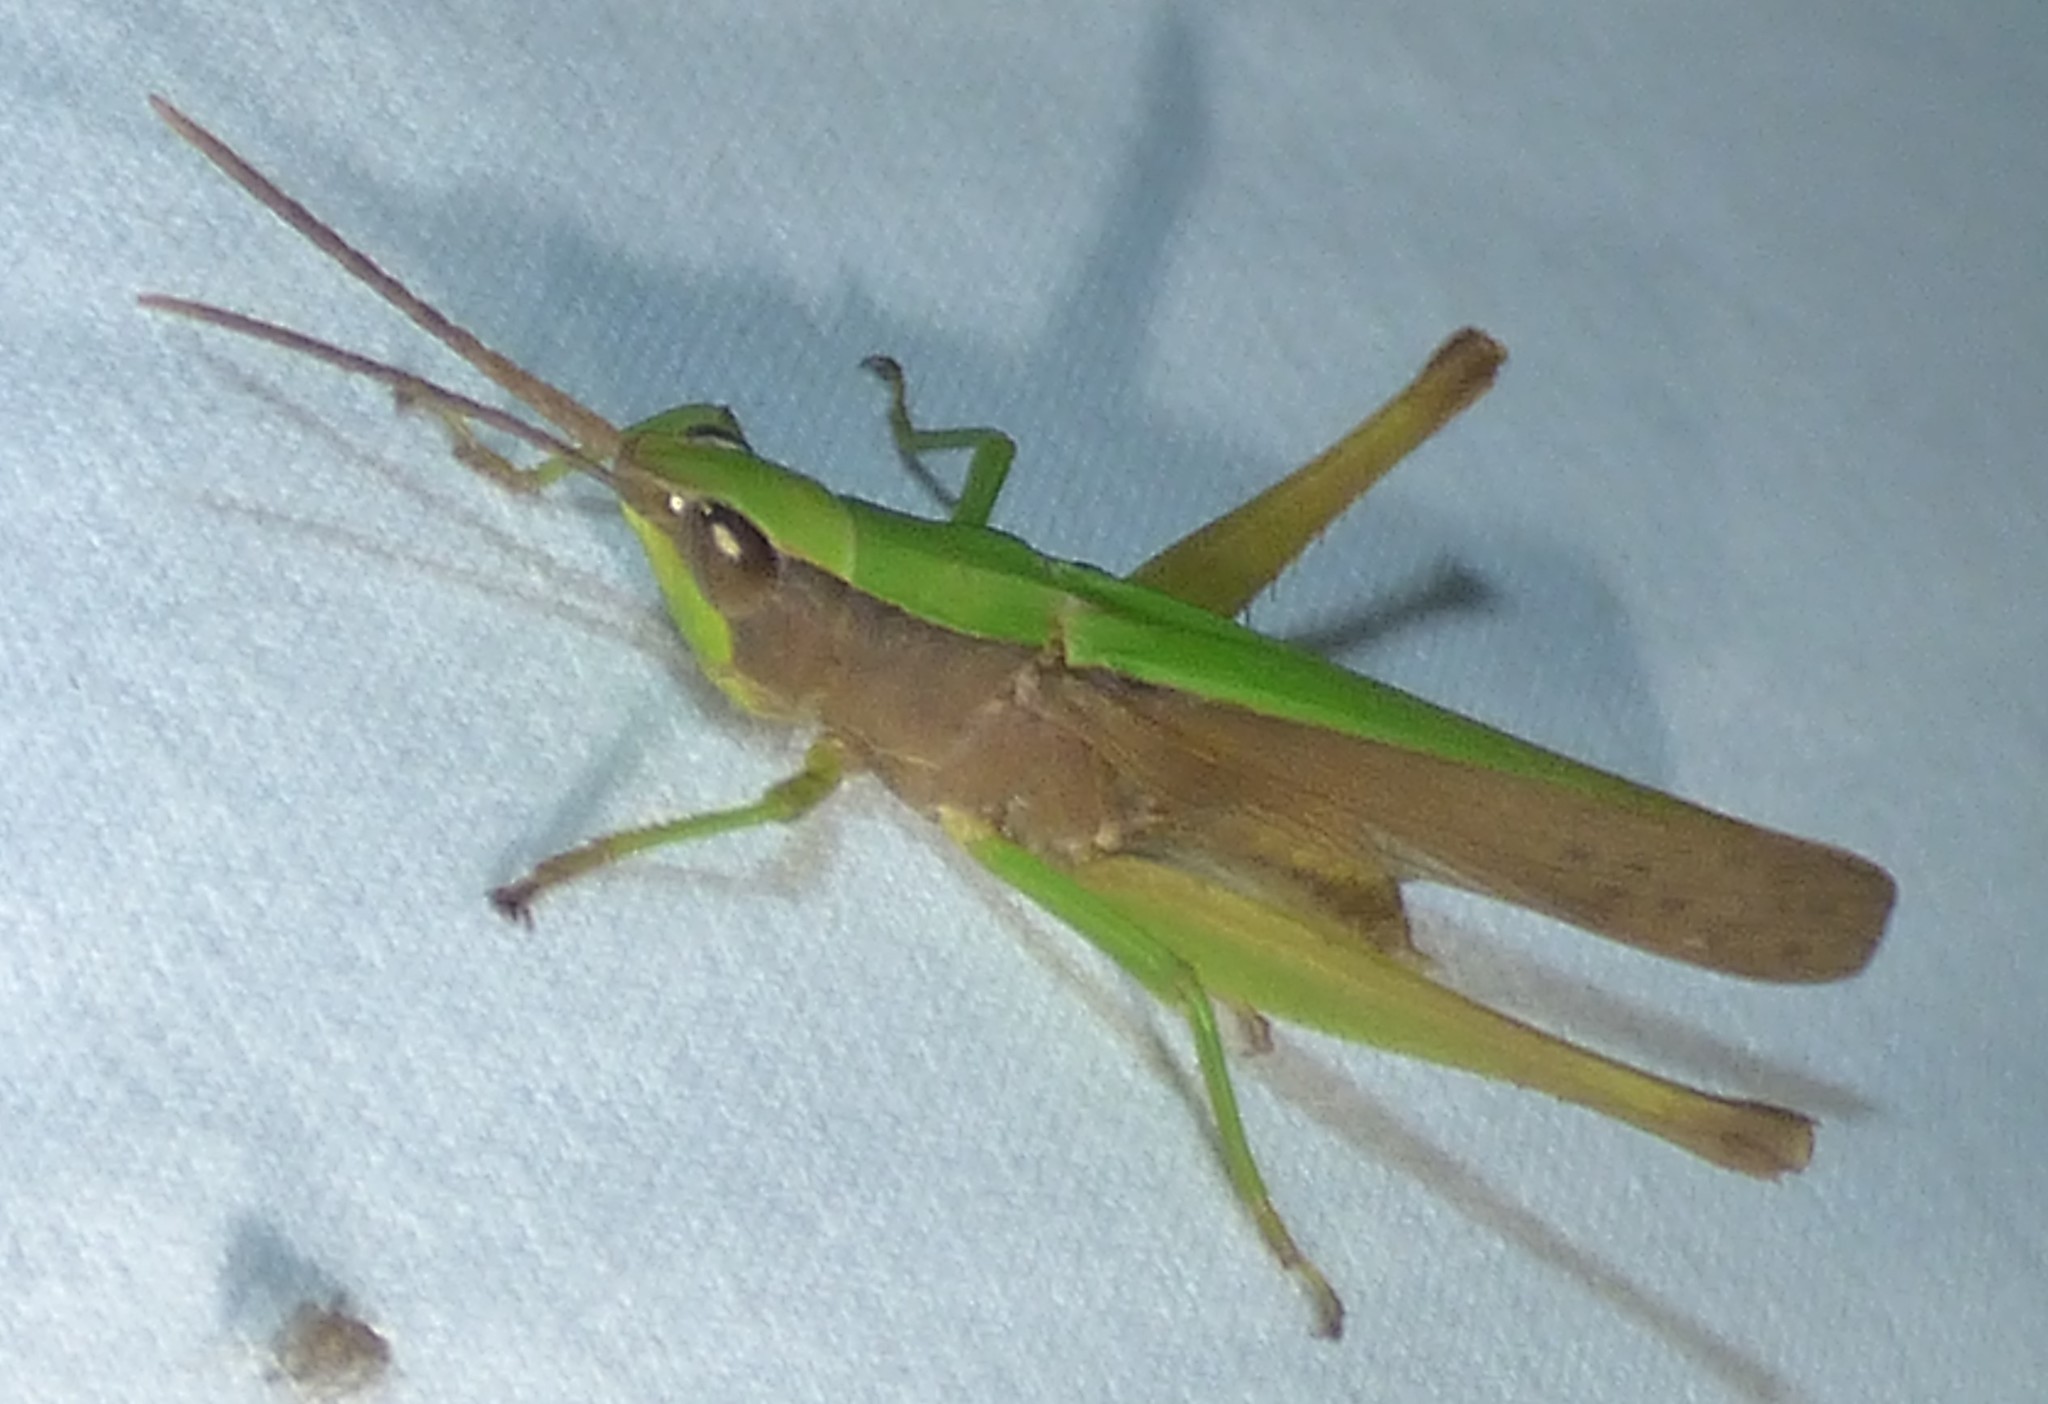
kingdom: Animalia
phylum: Arthropoda
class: Insecta
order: Orthoptera
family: Acrididae
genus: Metaleptea
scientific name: Metaleptea brevicornis
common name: Clipped-wing grasshopper
